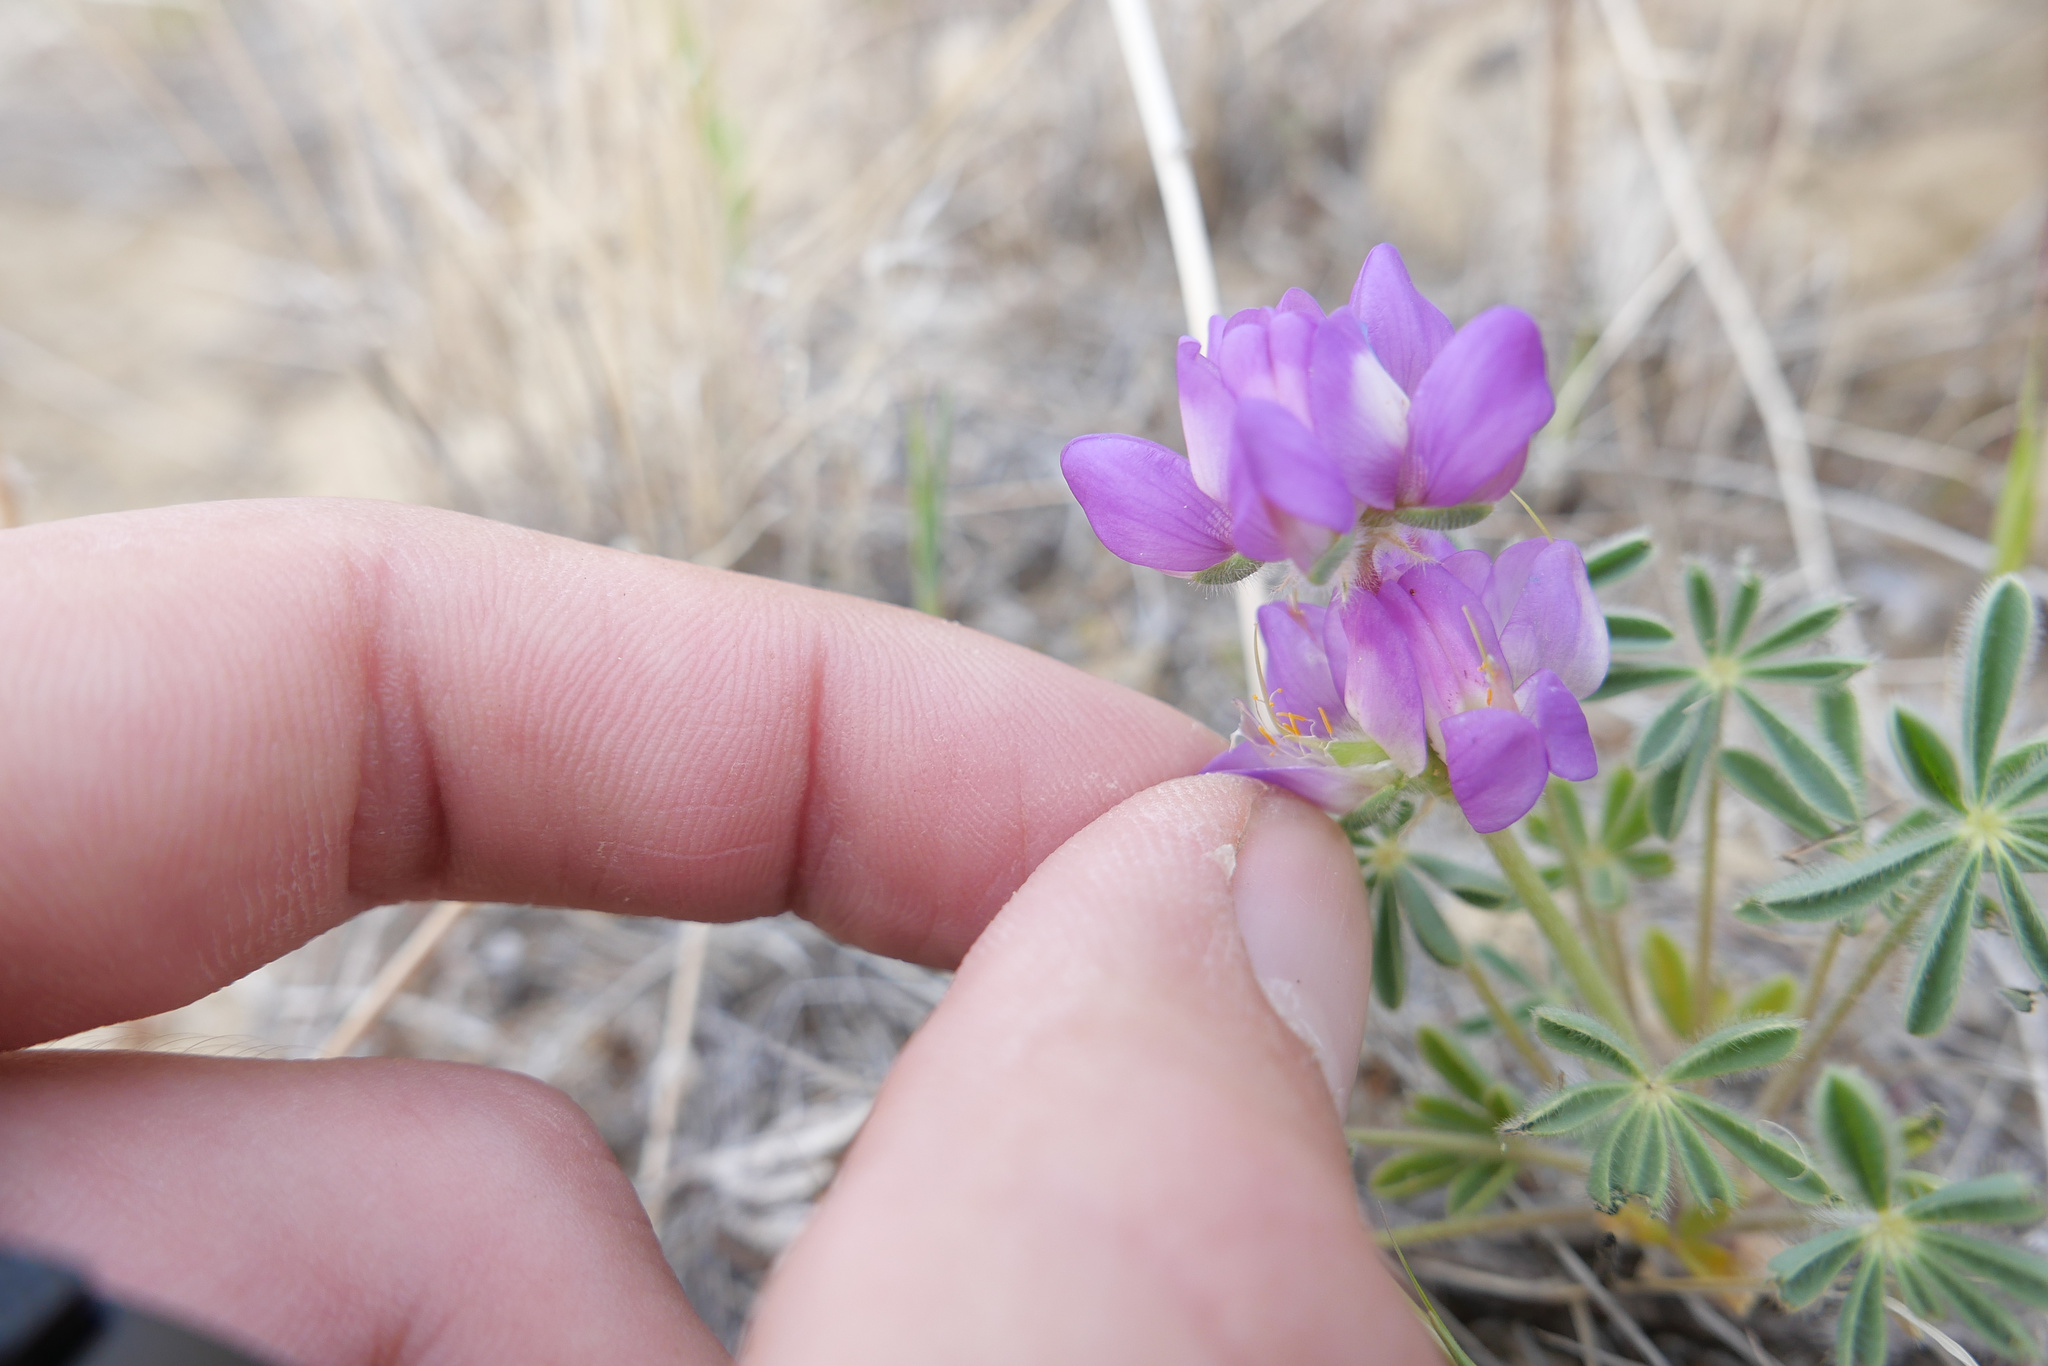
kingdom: Plantae
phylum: Tracheophyta
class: Magnoliopsida
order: Fabales
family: Fabaceae
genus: Lupinus
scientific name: Lupinus microcarpus
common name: Chick lupine
